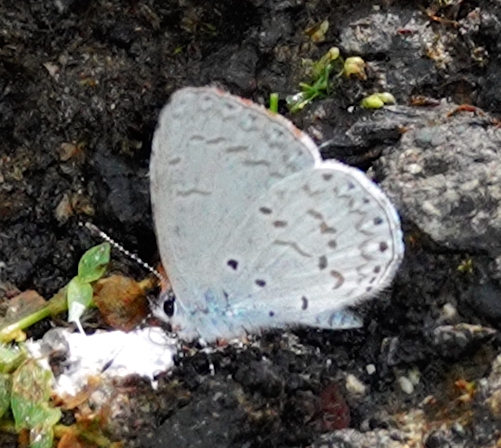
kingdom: Animalia
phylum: Arthropoda
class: Insecta
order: Lepidoptera
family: Lycaenidae
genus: Udara
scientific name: Udara dilectus
